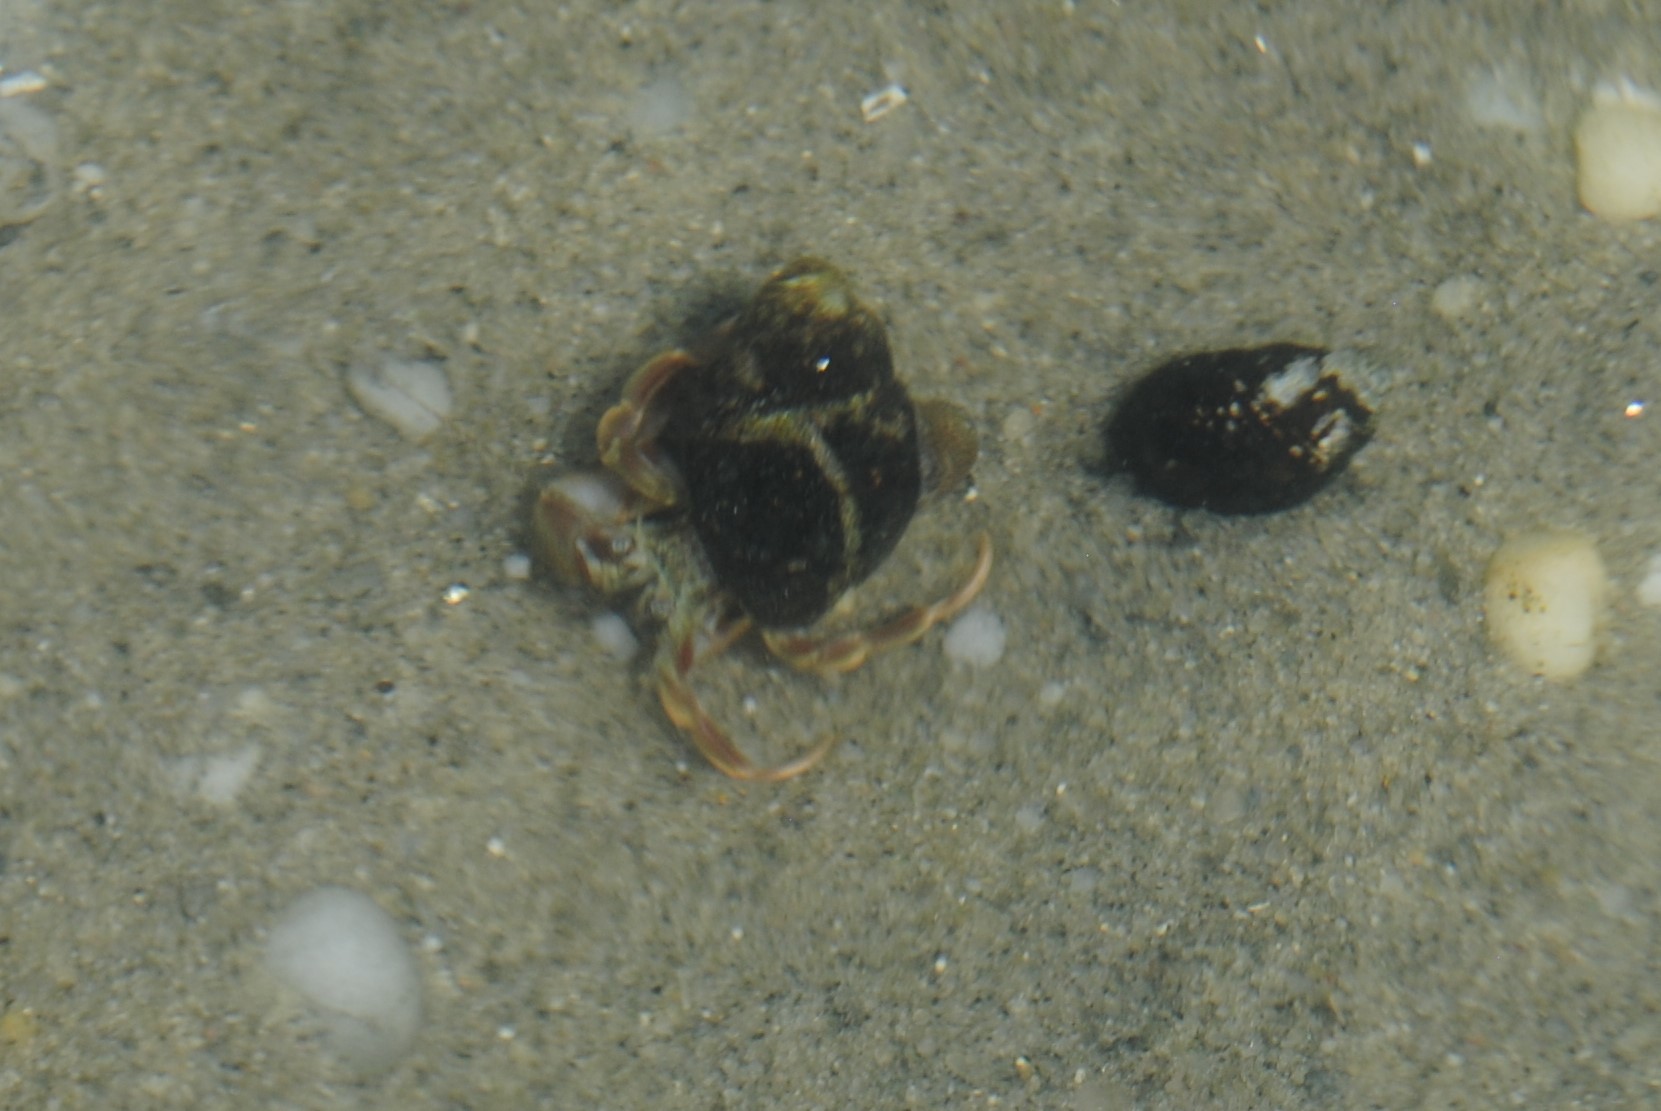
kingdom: Animalia
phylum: Arthropoda
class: Malacostraca
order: Decapoda
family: Paguridae
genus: Pagurus
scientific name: Pagurus longicarpus
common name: Long-armed hermit crab
